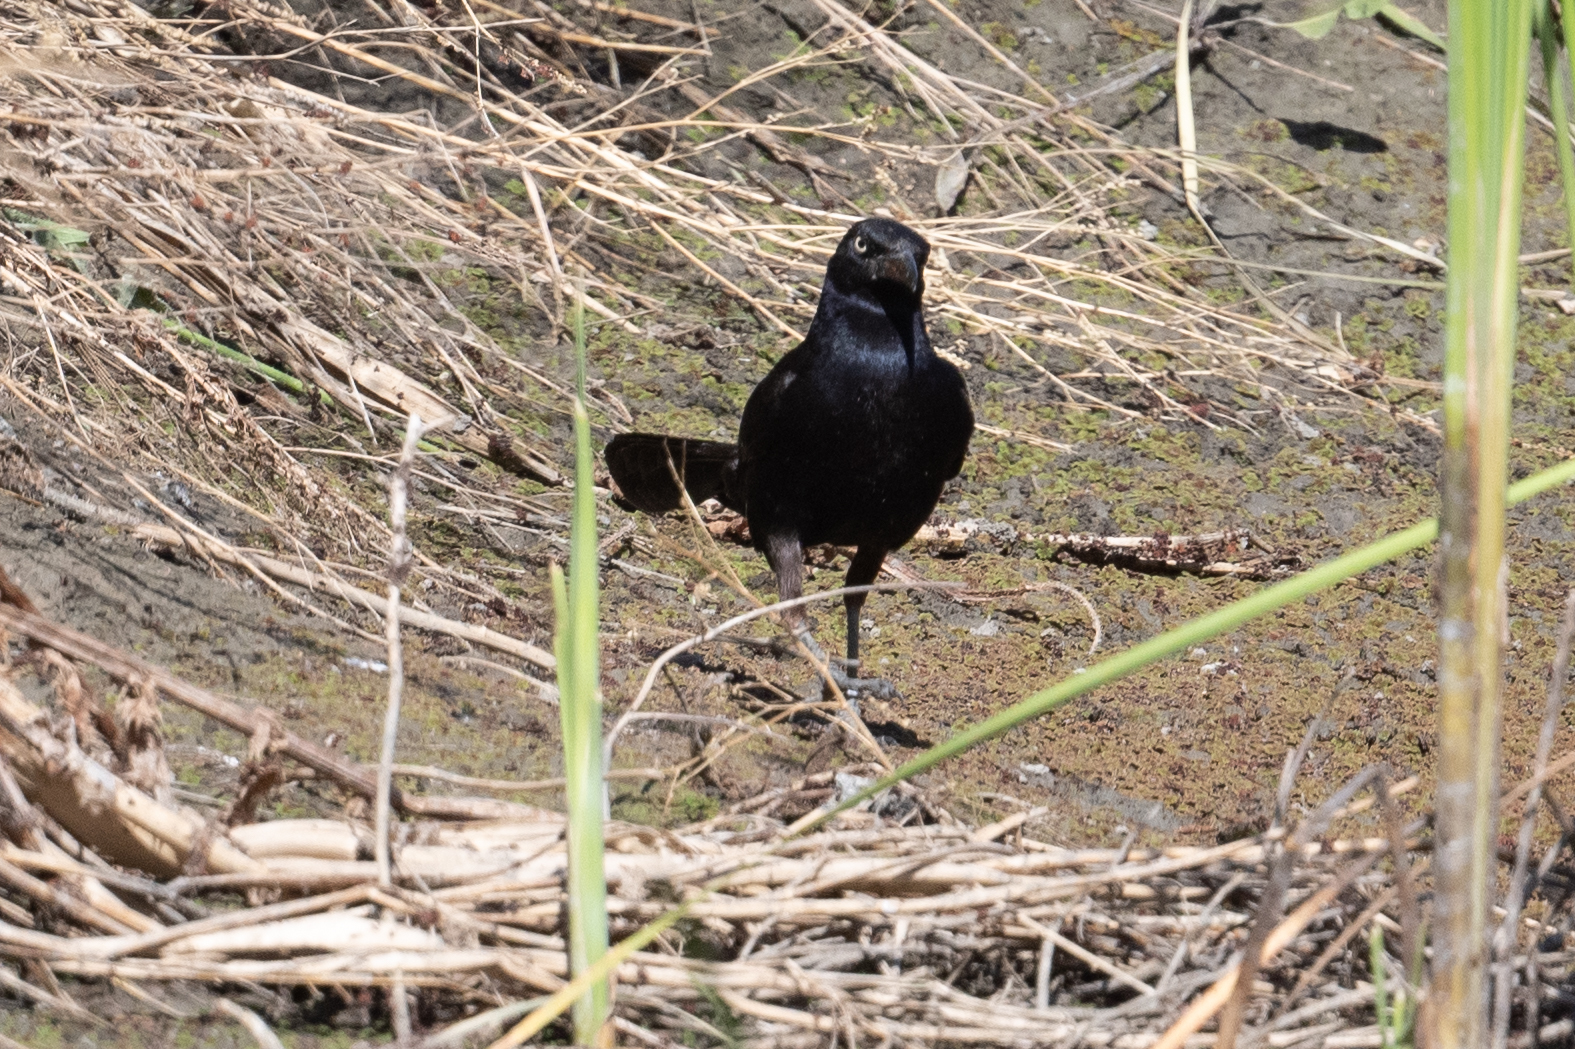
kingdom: Animalia
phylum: Chordata
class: Aves
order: Passeriformes
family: Icteridae
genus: Quiscalus
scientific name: Quiscalus mexicanus
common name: Great-tailed grackle
